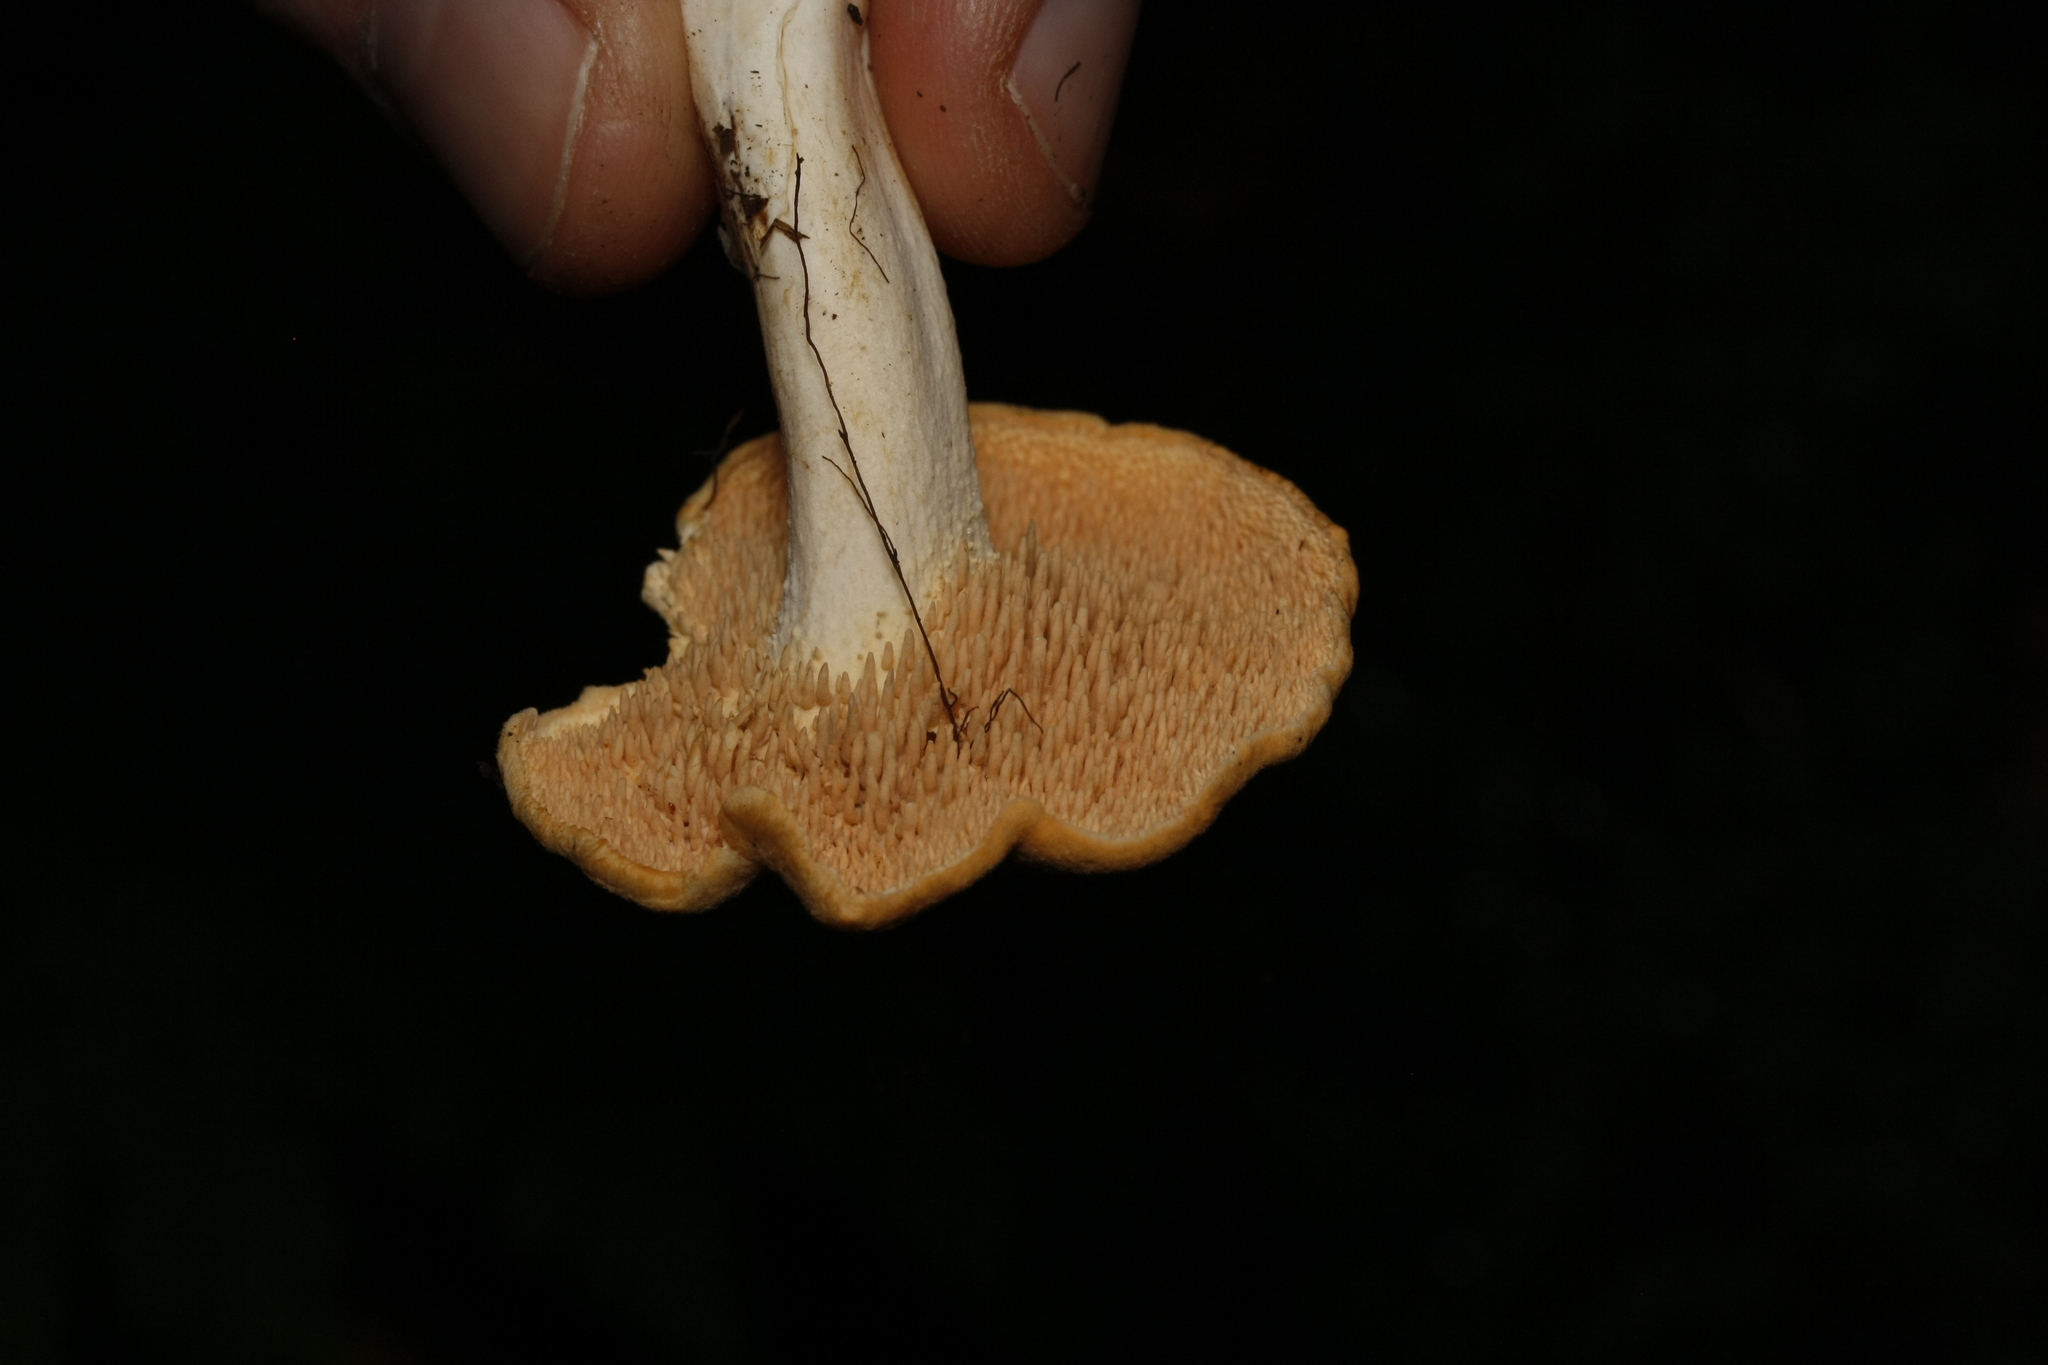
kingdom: Fungi
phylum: Basidiomycota
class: Agaricomycetes
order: Cantharellales
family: Hydnaceae
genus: Hydnum
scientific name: Hydnum repandum
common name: Wood hedgehog
